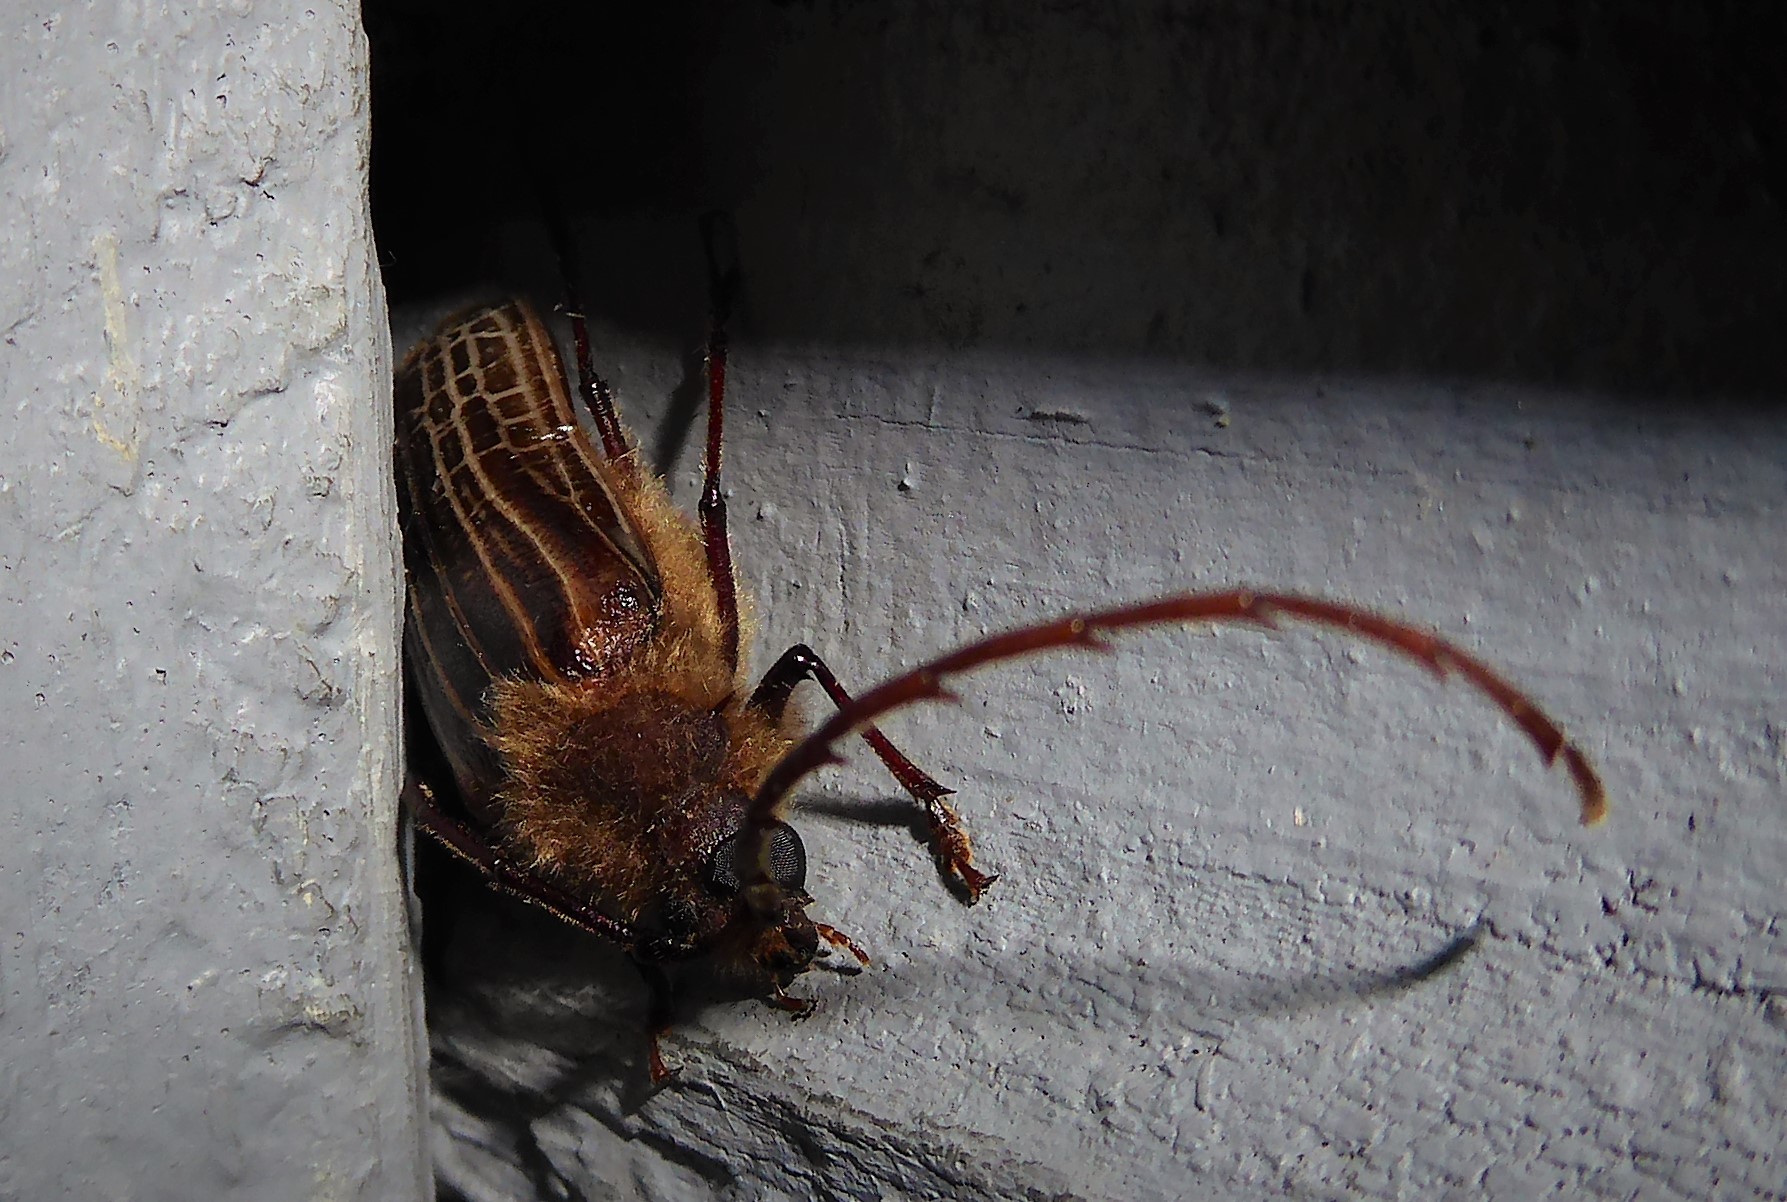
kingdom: Animalia
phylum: Arthropoda
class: Insecta
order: Coleoptera
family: Cerambycidae
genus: Prionoplus
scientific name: Prionoplus reticularis
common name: Huhu beetle
